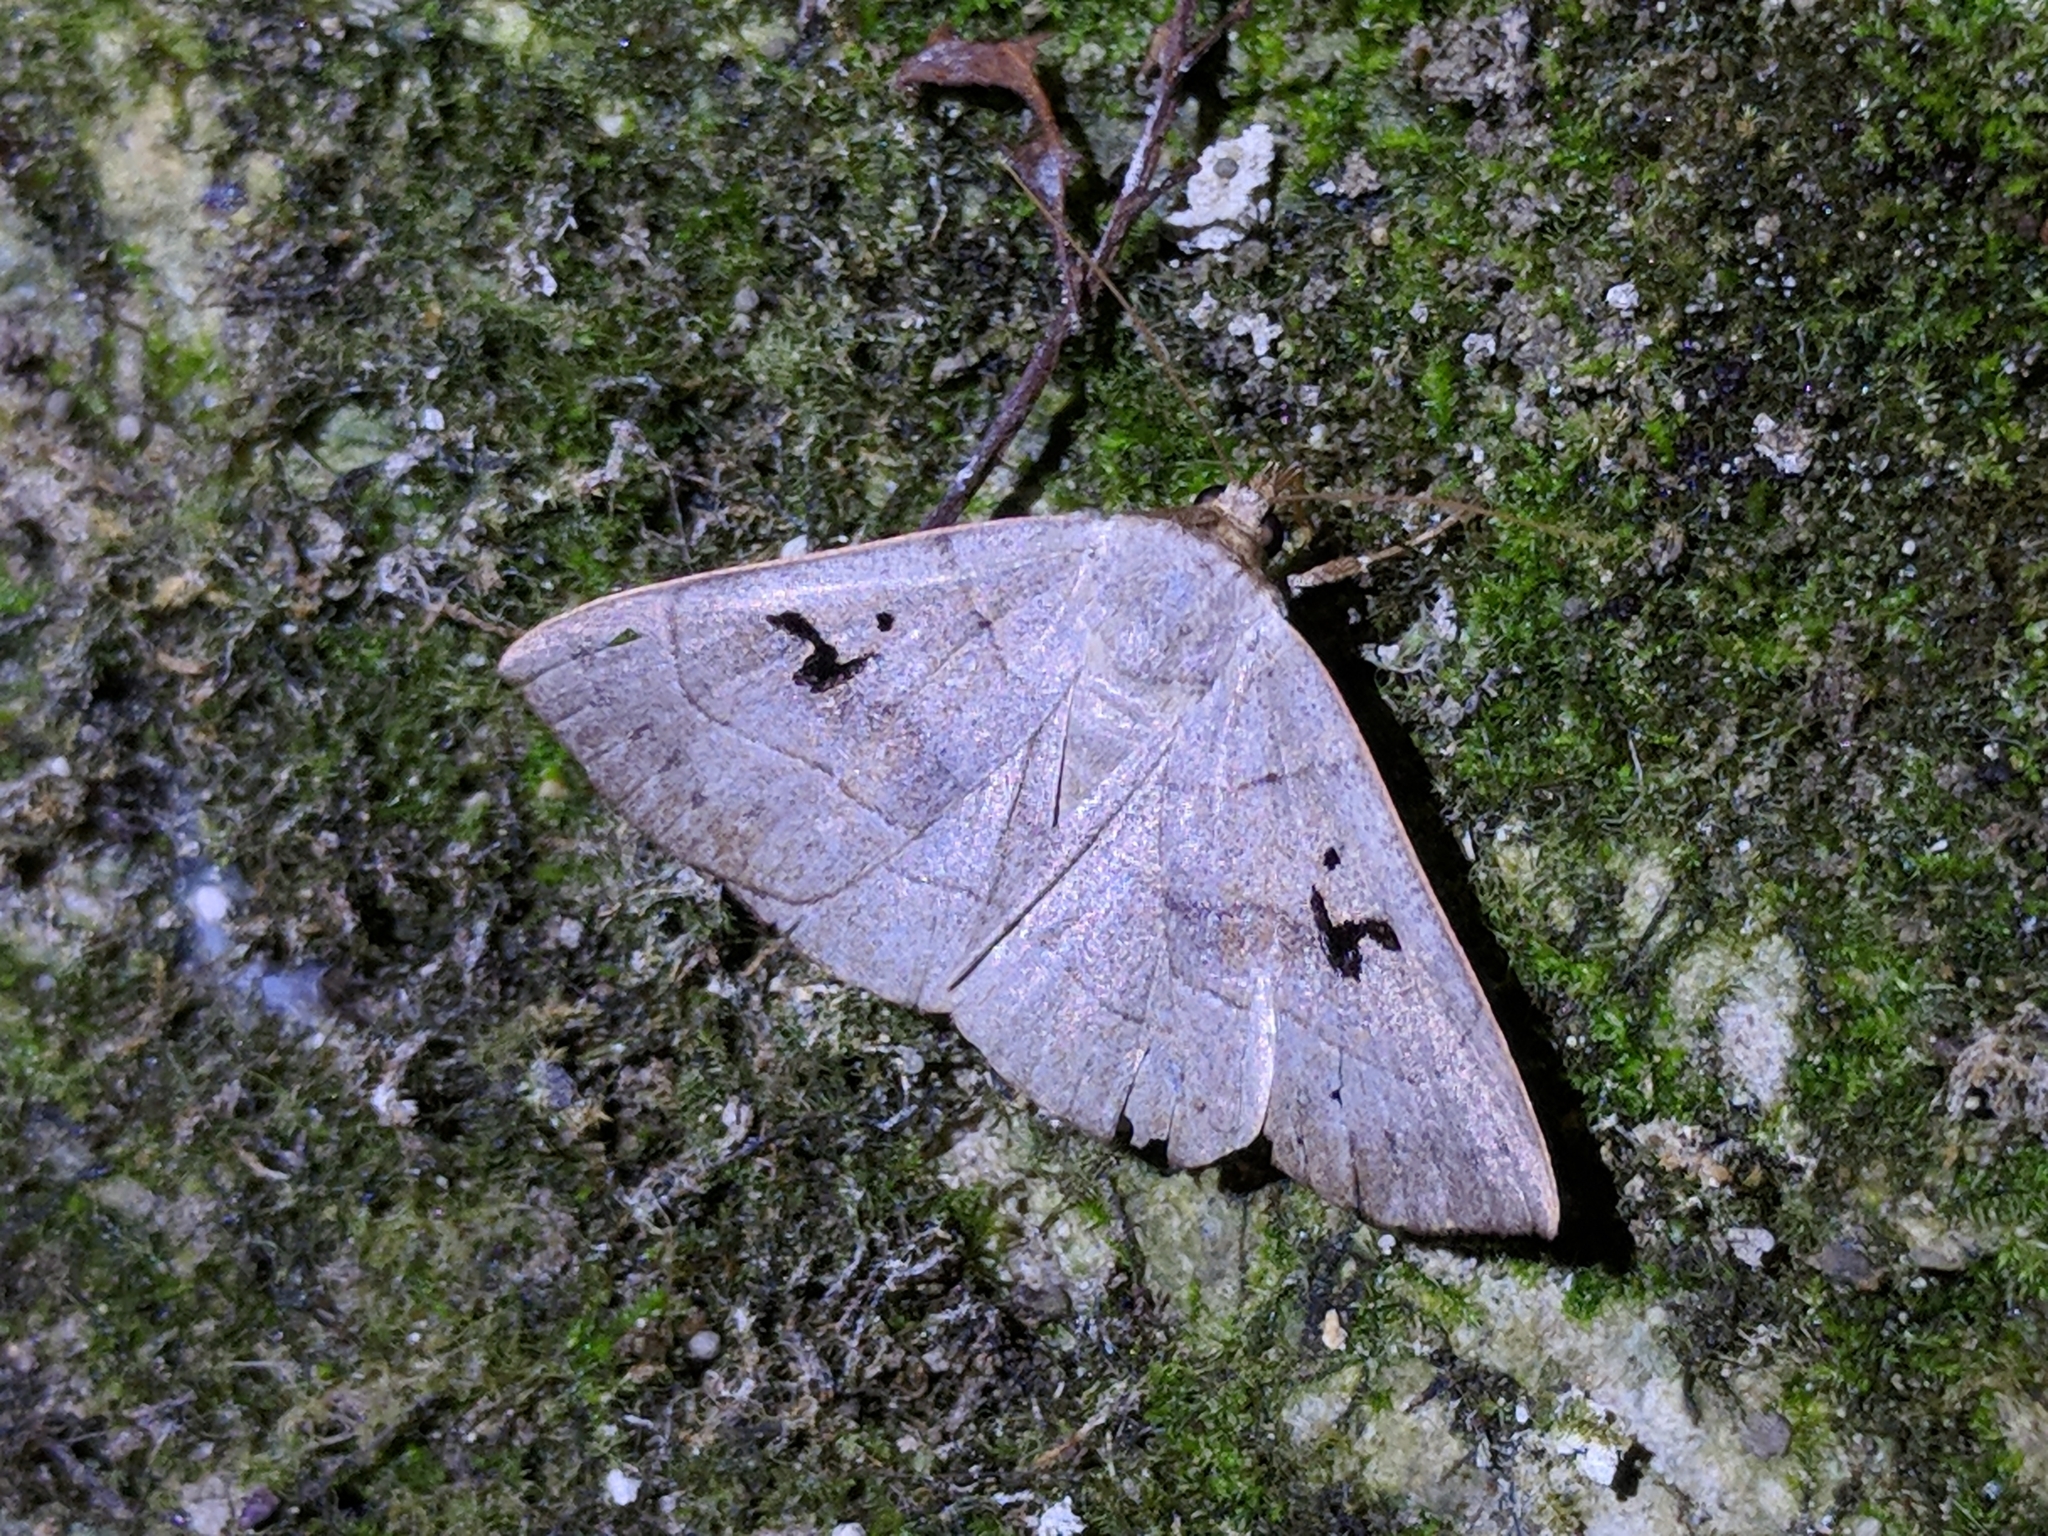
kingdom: Animalia
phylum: Arthropoda
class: Insecta
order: Lepidoptera
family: Erebidae
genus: Panopoda
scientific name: Panopoda carneicosta
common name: Brown panopoda moth
